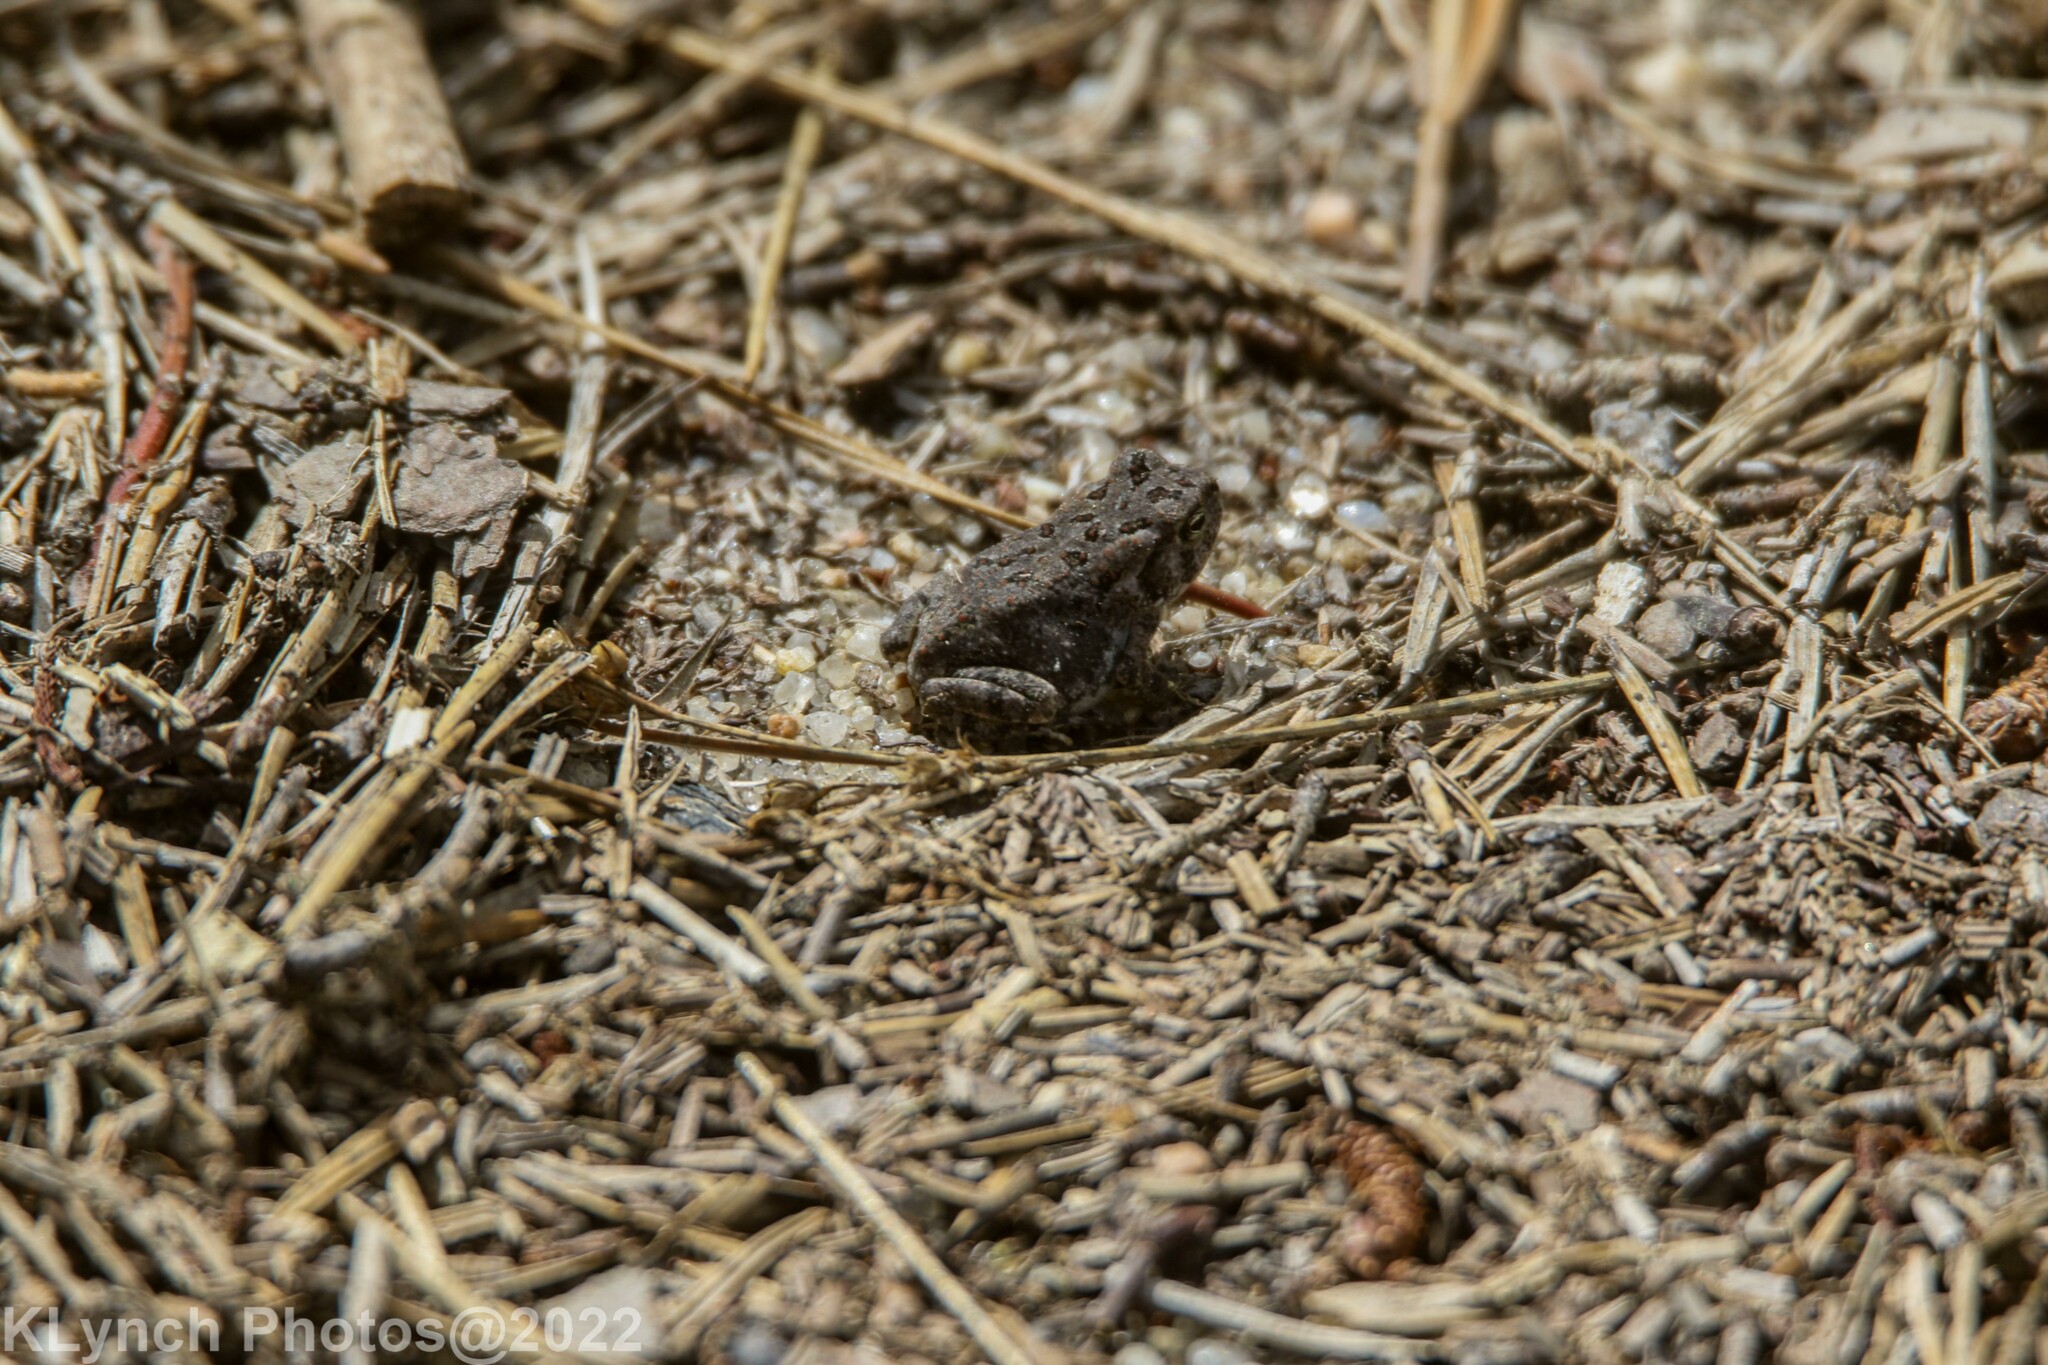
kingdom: Animalia
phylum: Chordata
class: Amphibia
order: Anura
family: Bufonidae
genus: Anaxyrus
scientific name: Anaxyrus fowleri
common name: Fowler's toad
